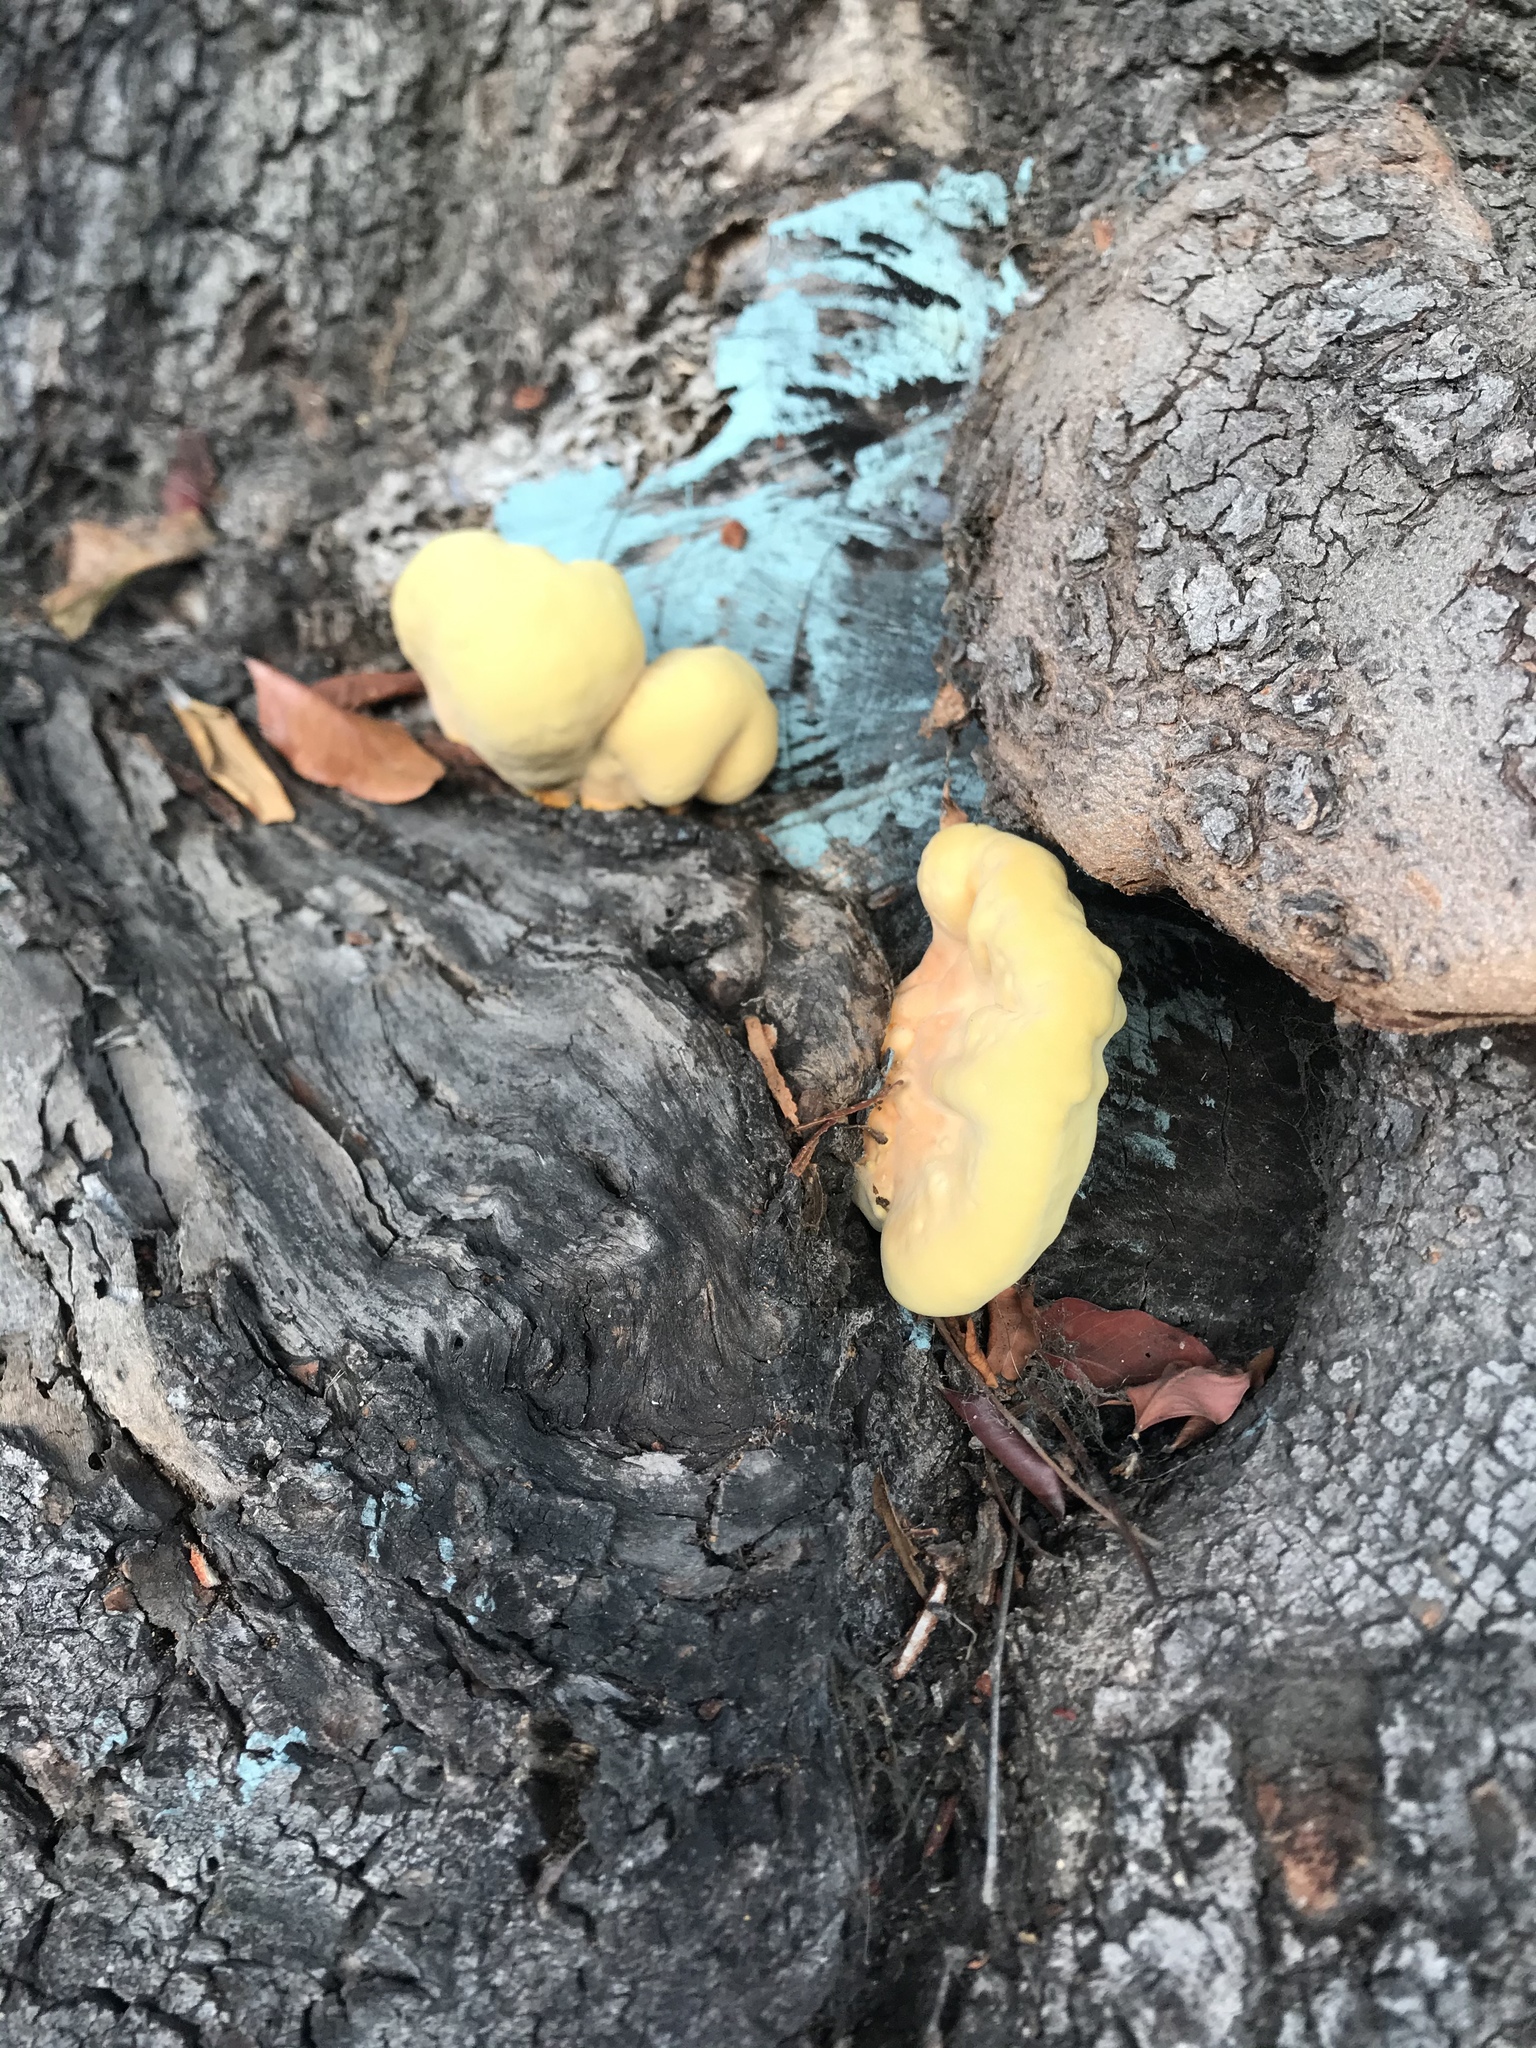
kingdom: Fungi
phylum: Basidiomycota
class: Agaricomycetes
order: Polyporales
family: Laetiporaceae
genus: Laetiporus
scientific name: Laetiporus gilbertsonii
